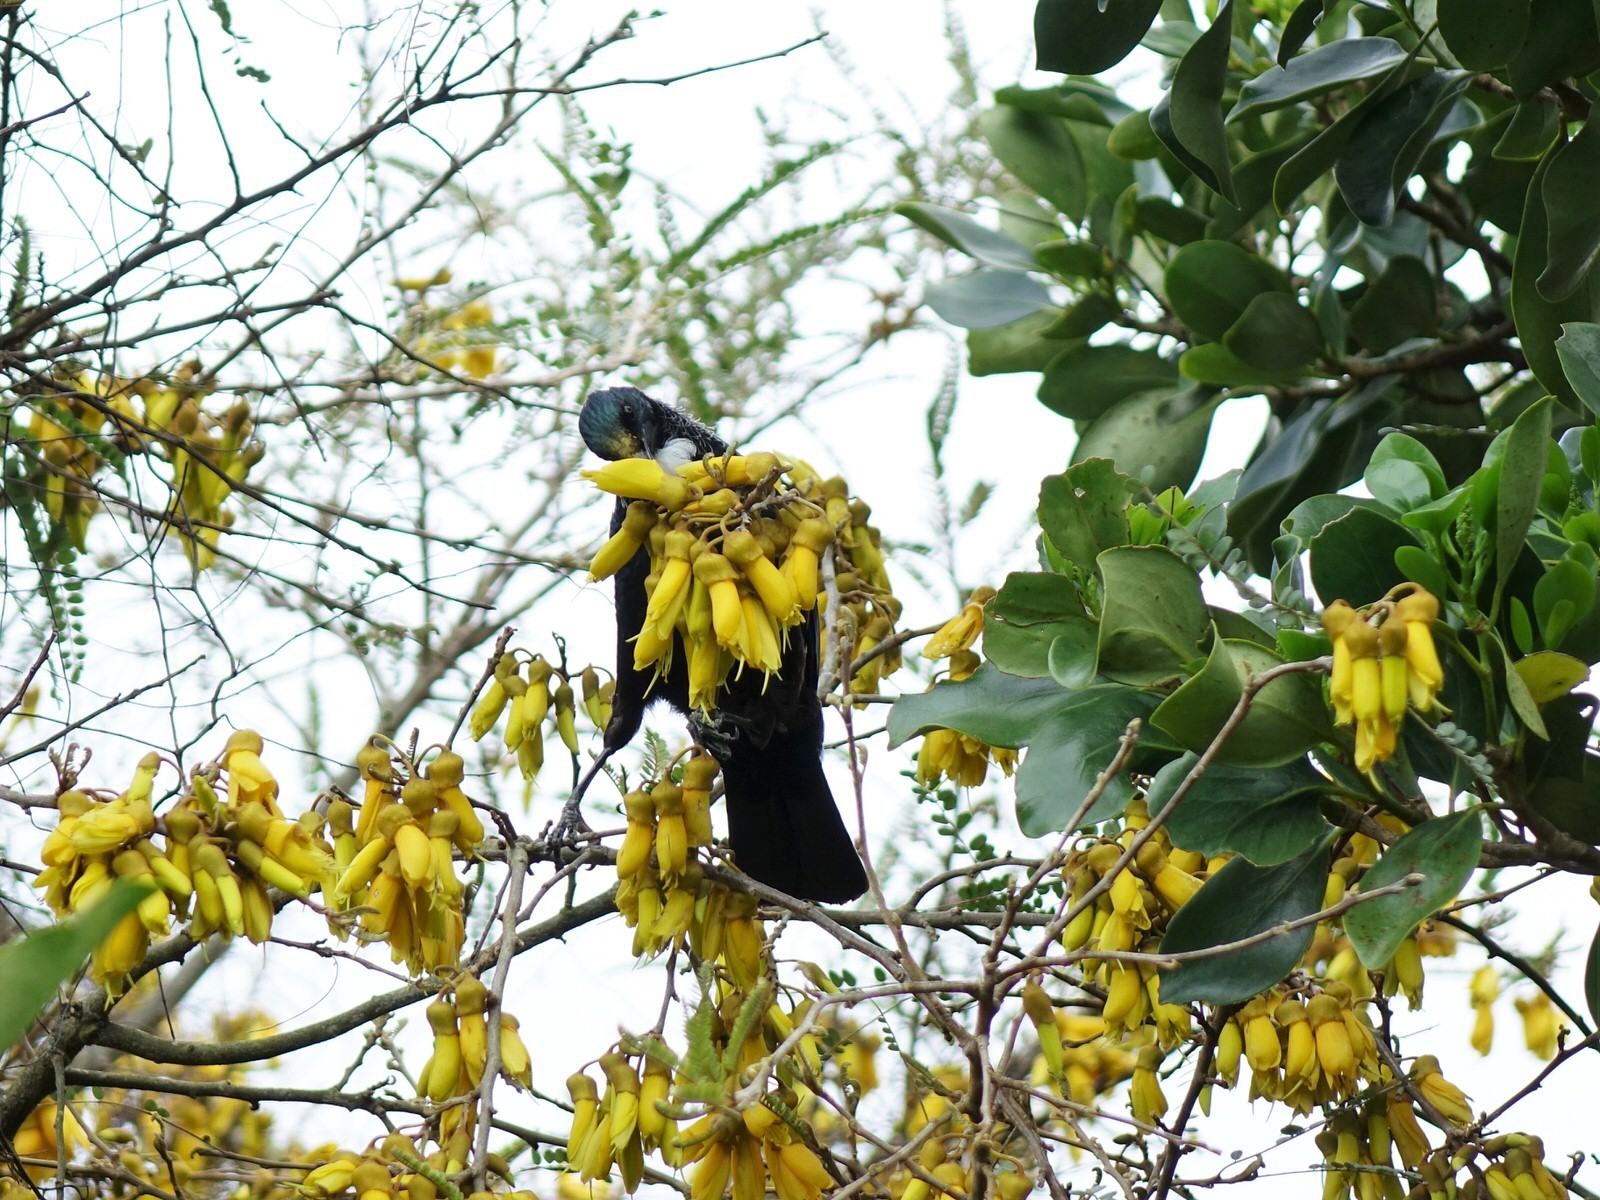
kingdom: Animalia
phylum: Chordata
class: Aves
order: Passeriformes
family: Meliphagidae
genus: Prosthemadera
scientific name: Prosthemadera novaeseelandiae
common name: Tui
